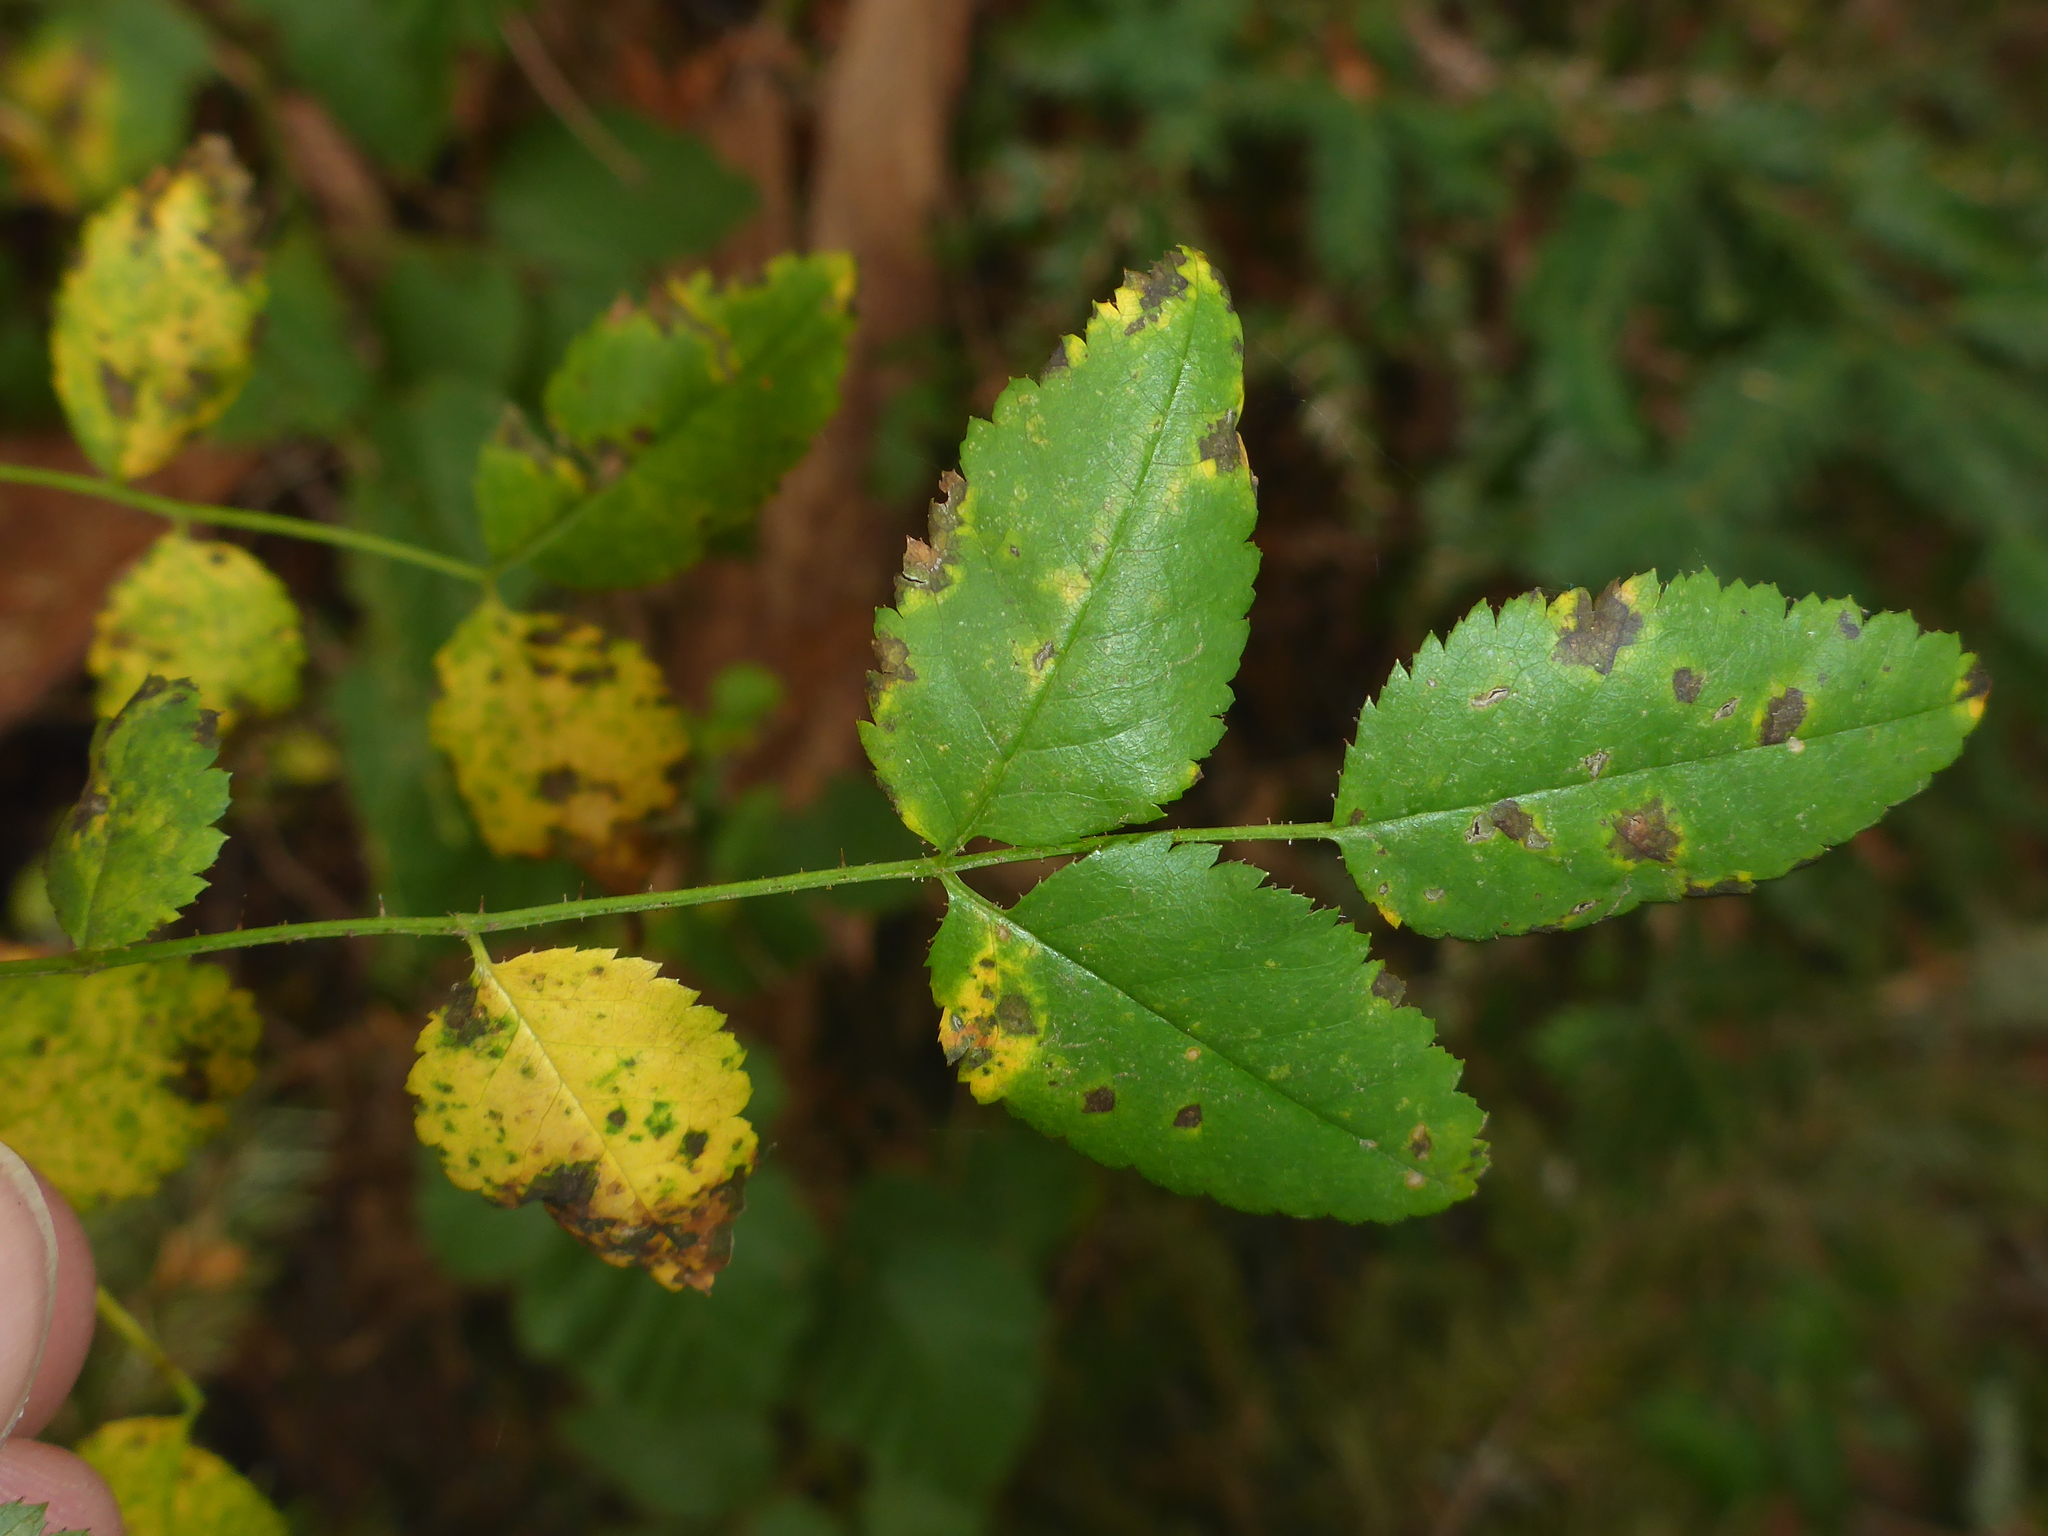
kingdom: Plantae
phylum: Tracheophyta
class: Magnoliopsida
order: Rosales
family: Rosaceae
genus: Rosa
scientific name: Rosa gymnocarpa
